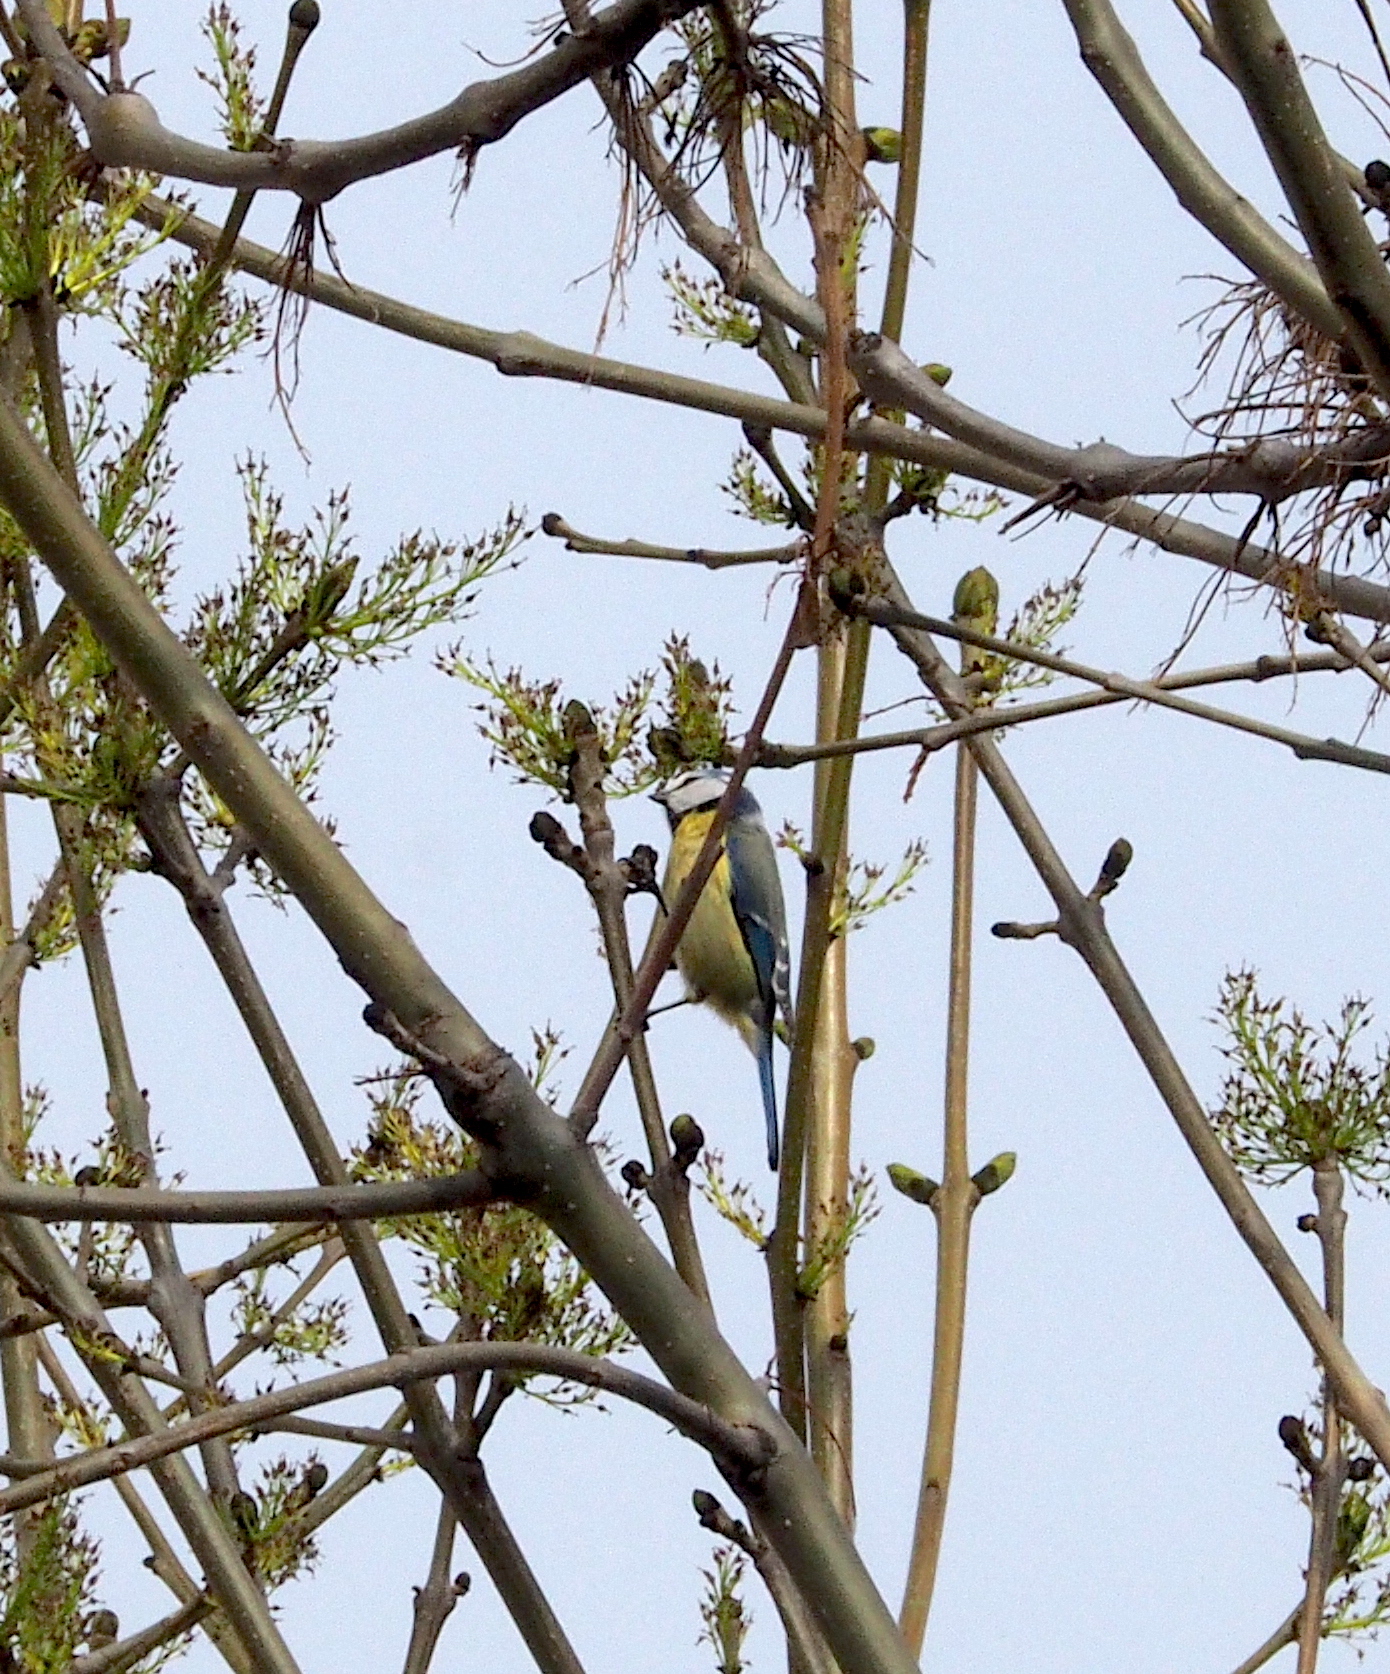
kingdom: Animalia
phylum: Chordata
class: Aves
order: Passeriformes
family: Paridae
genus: Cyanistes
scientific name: Cyanistes caeruleus
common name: Eurasian blue tit
